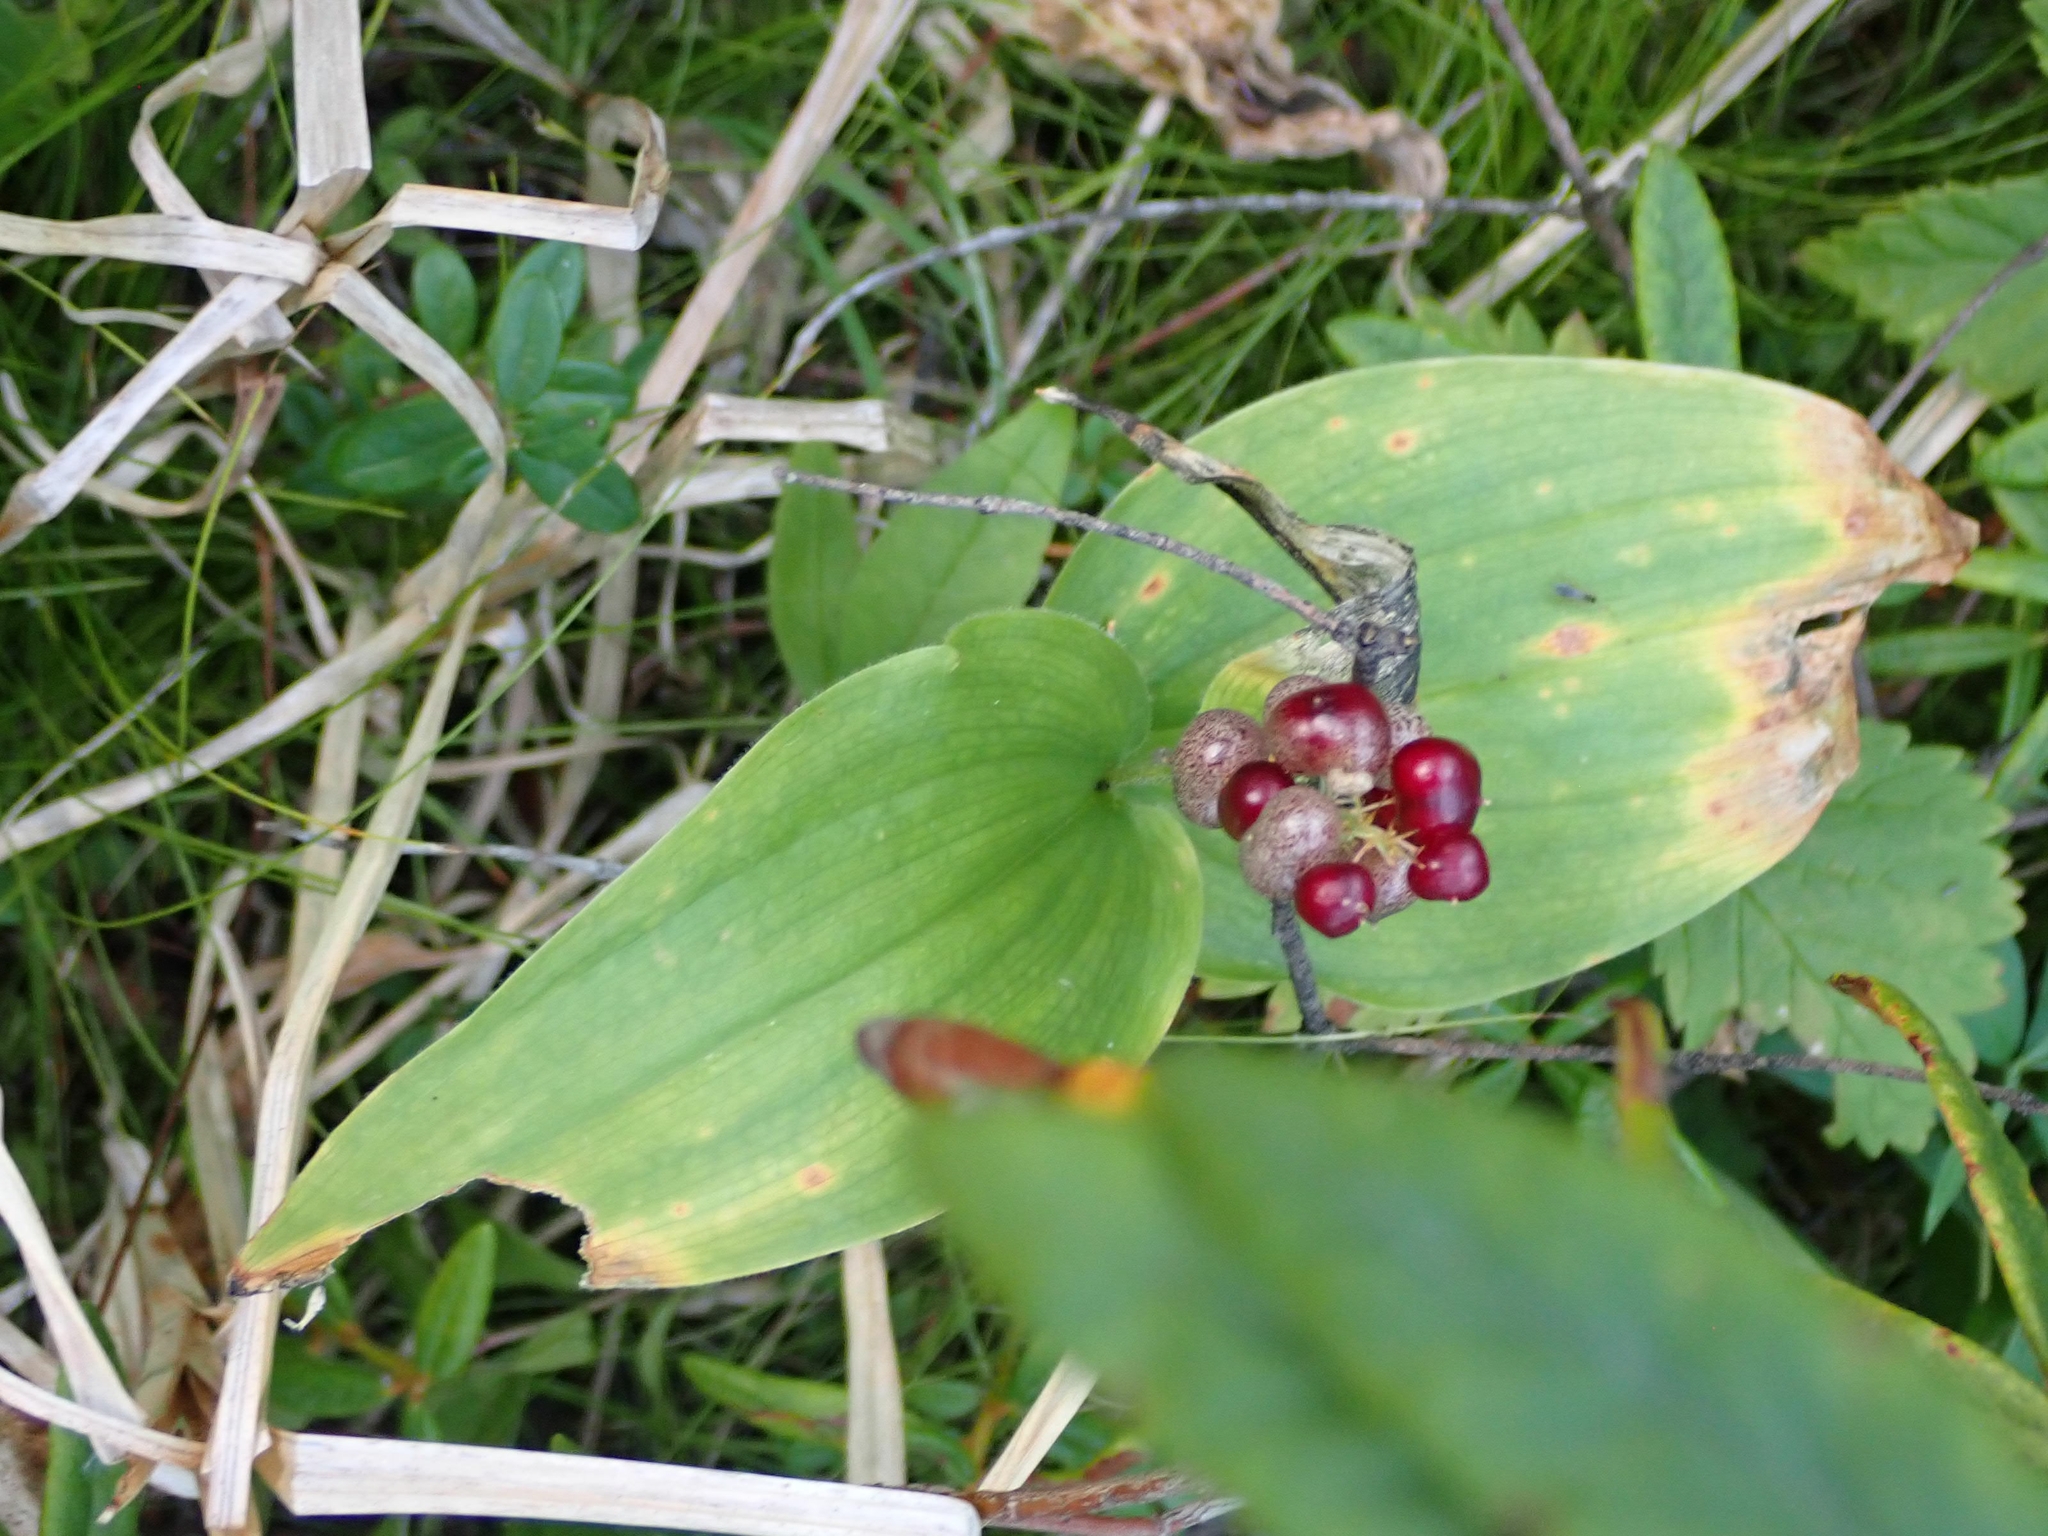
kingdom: Plantae
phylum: Tracheophyta
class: Liliopsida
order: Asparagales
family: Asparagaceae
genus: Maianthemum
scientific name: Maianthemum canadense
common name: False lily-of-the-valley
